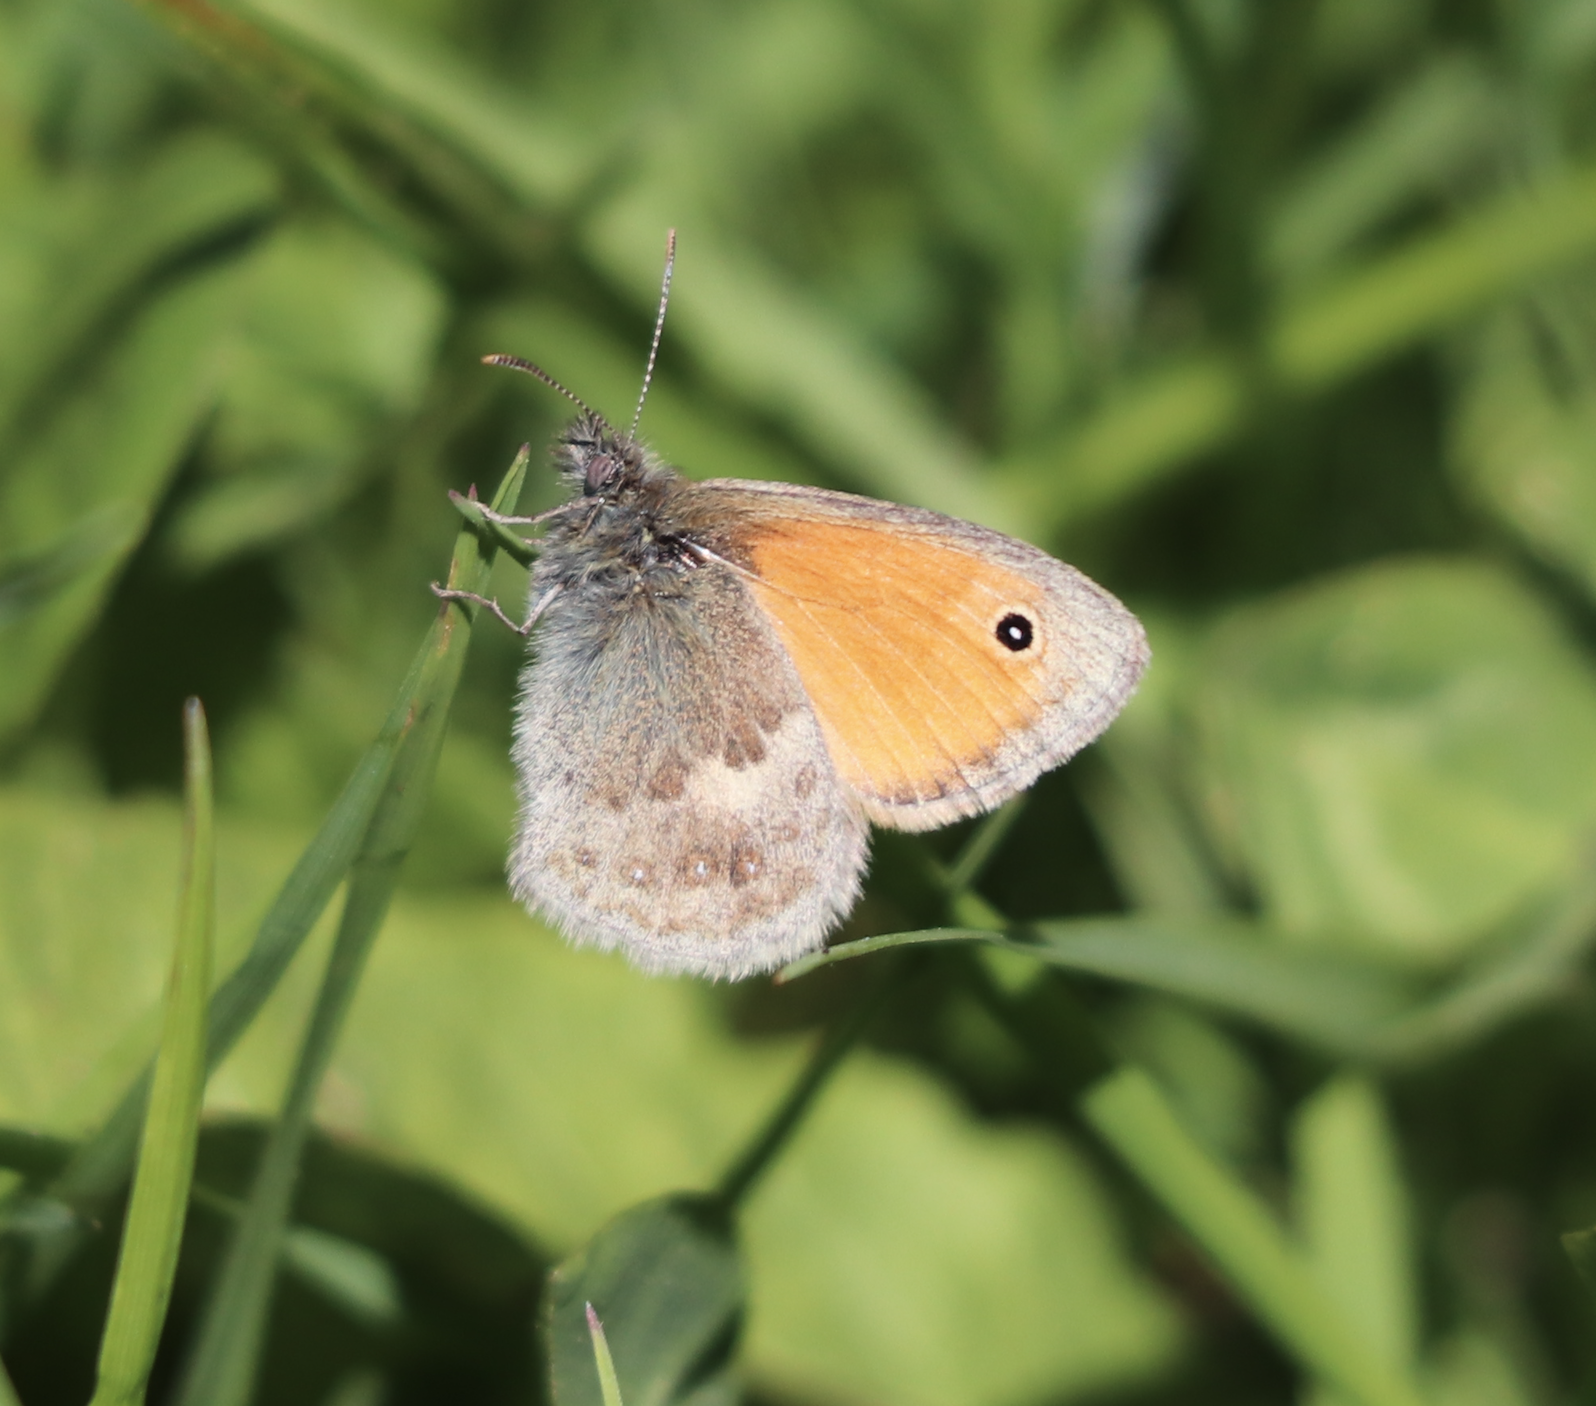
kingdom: Animalia
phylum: Arthropoda
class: Insecta
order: Lepidoptera
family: Nymphalidae
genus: Coenonympha
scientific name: Coenonympha pamphilus
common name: Small heath
